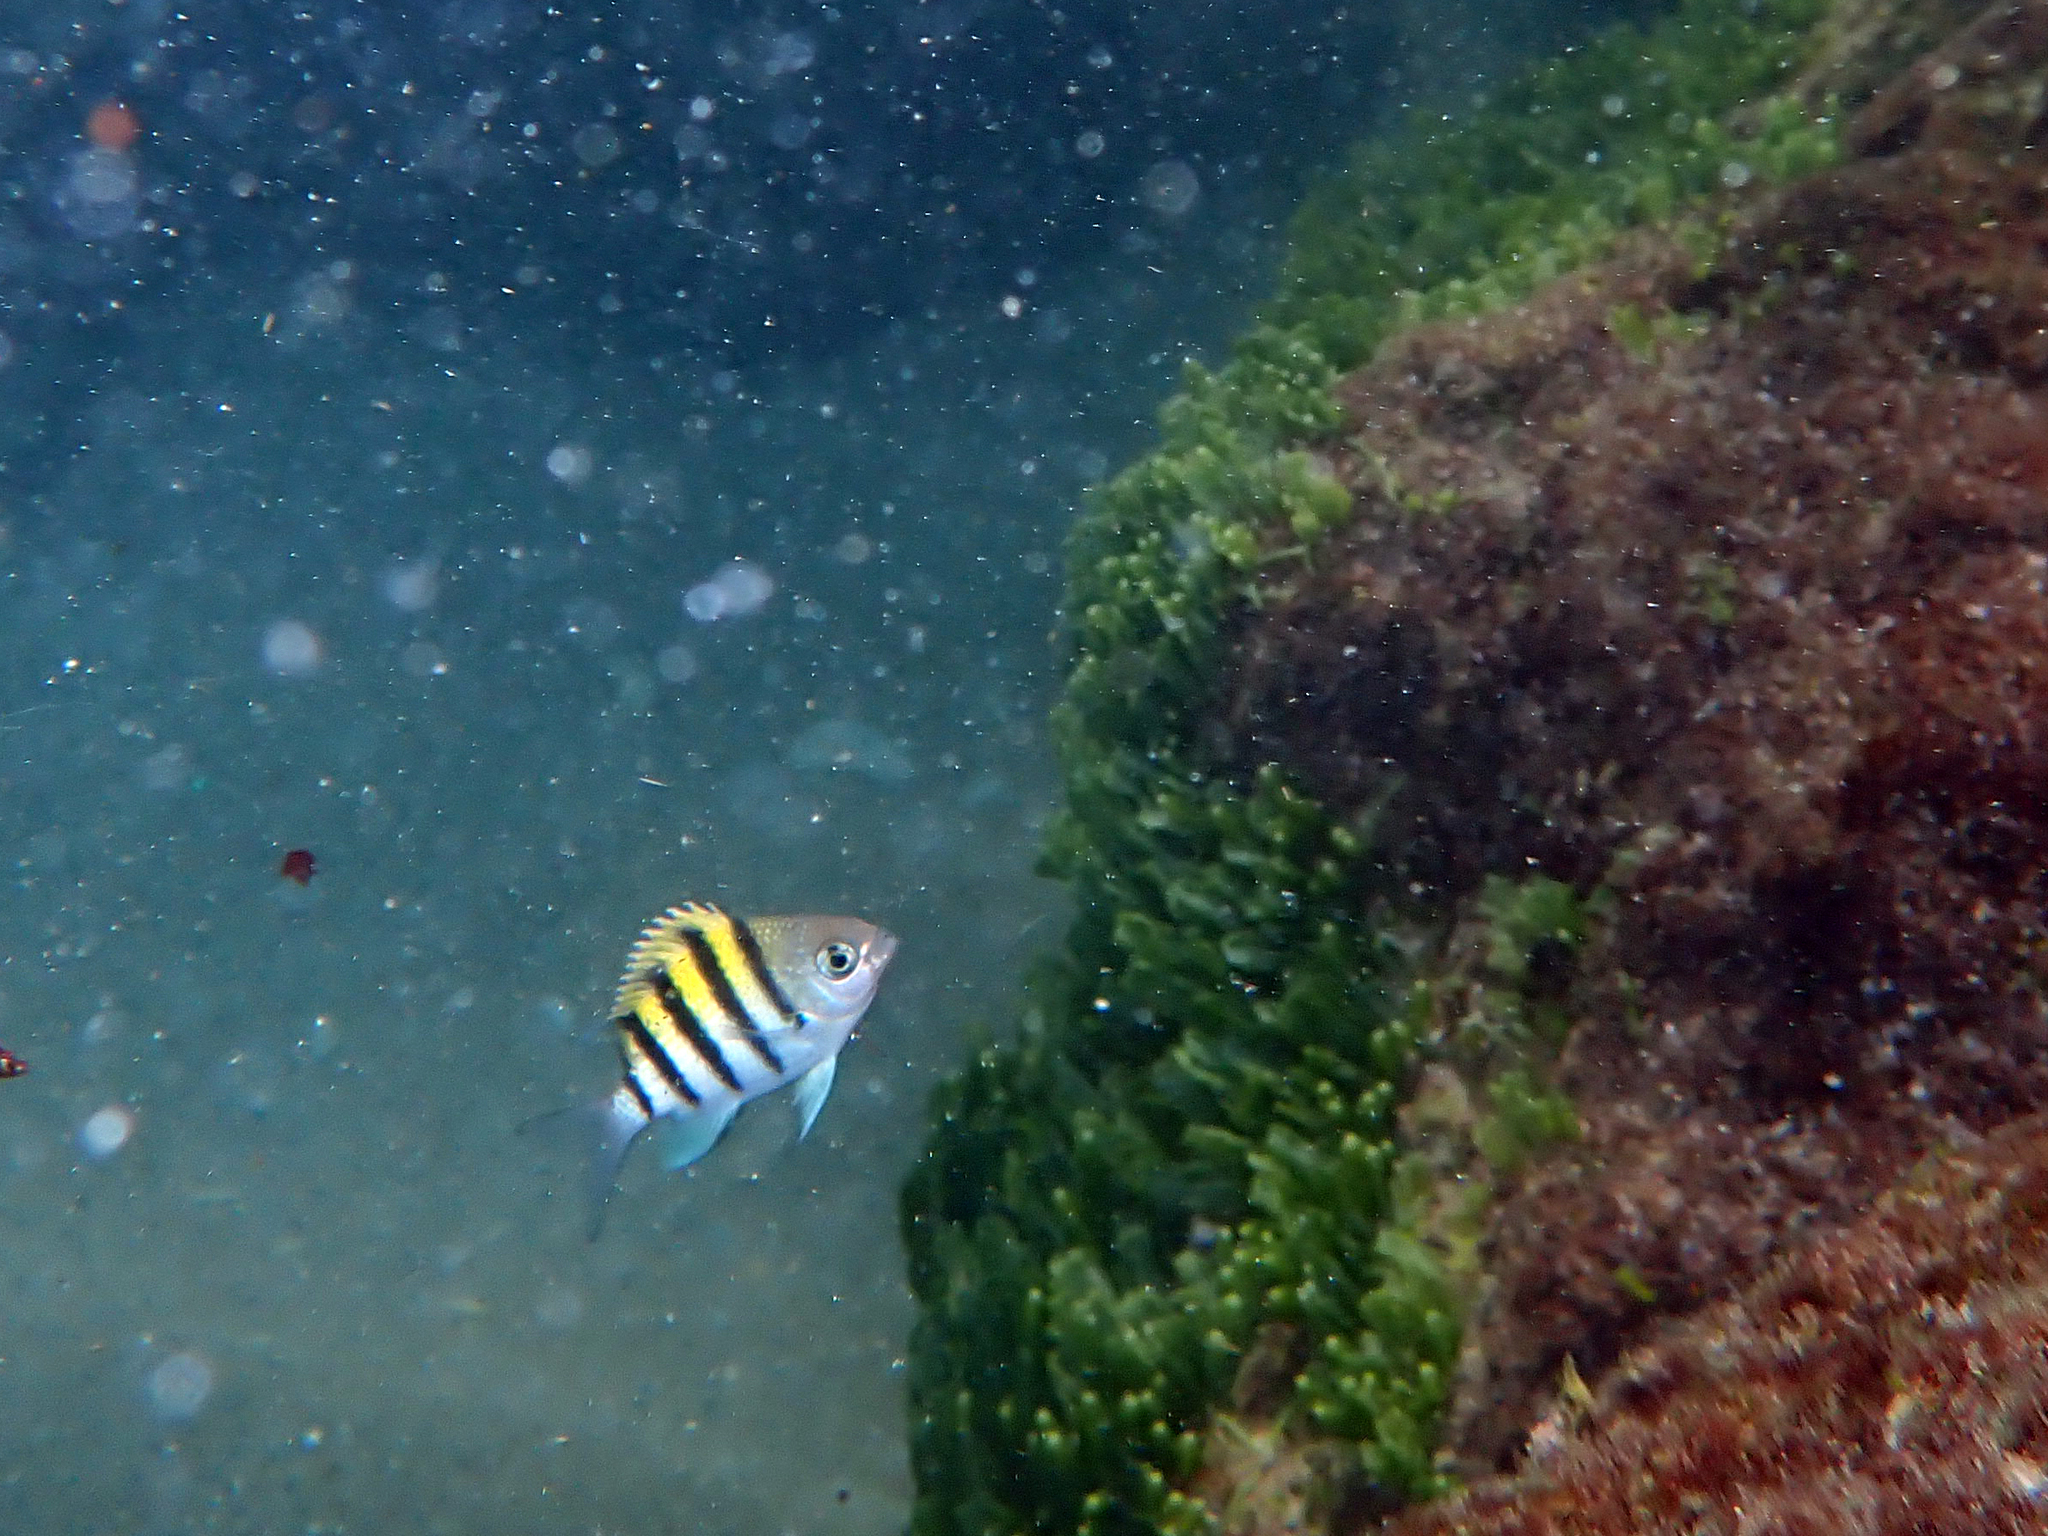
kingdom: Animalia
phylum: Chordata
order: Perciformes
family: Pomacentridae
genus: Abudefduf
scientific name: Abudefduf saxatilis
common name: Sergeant major
